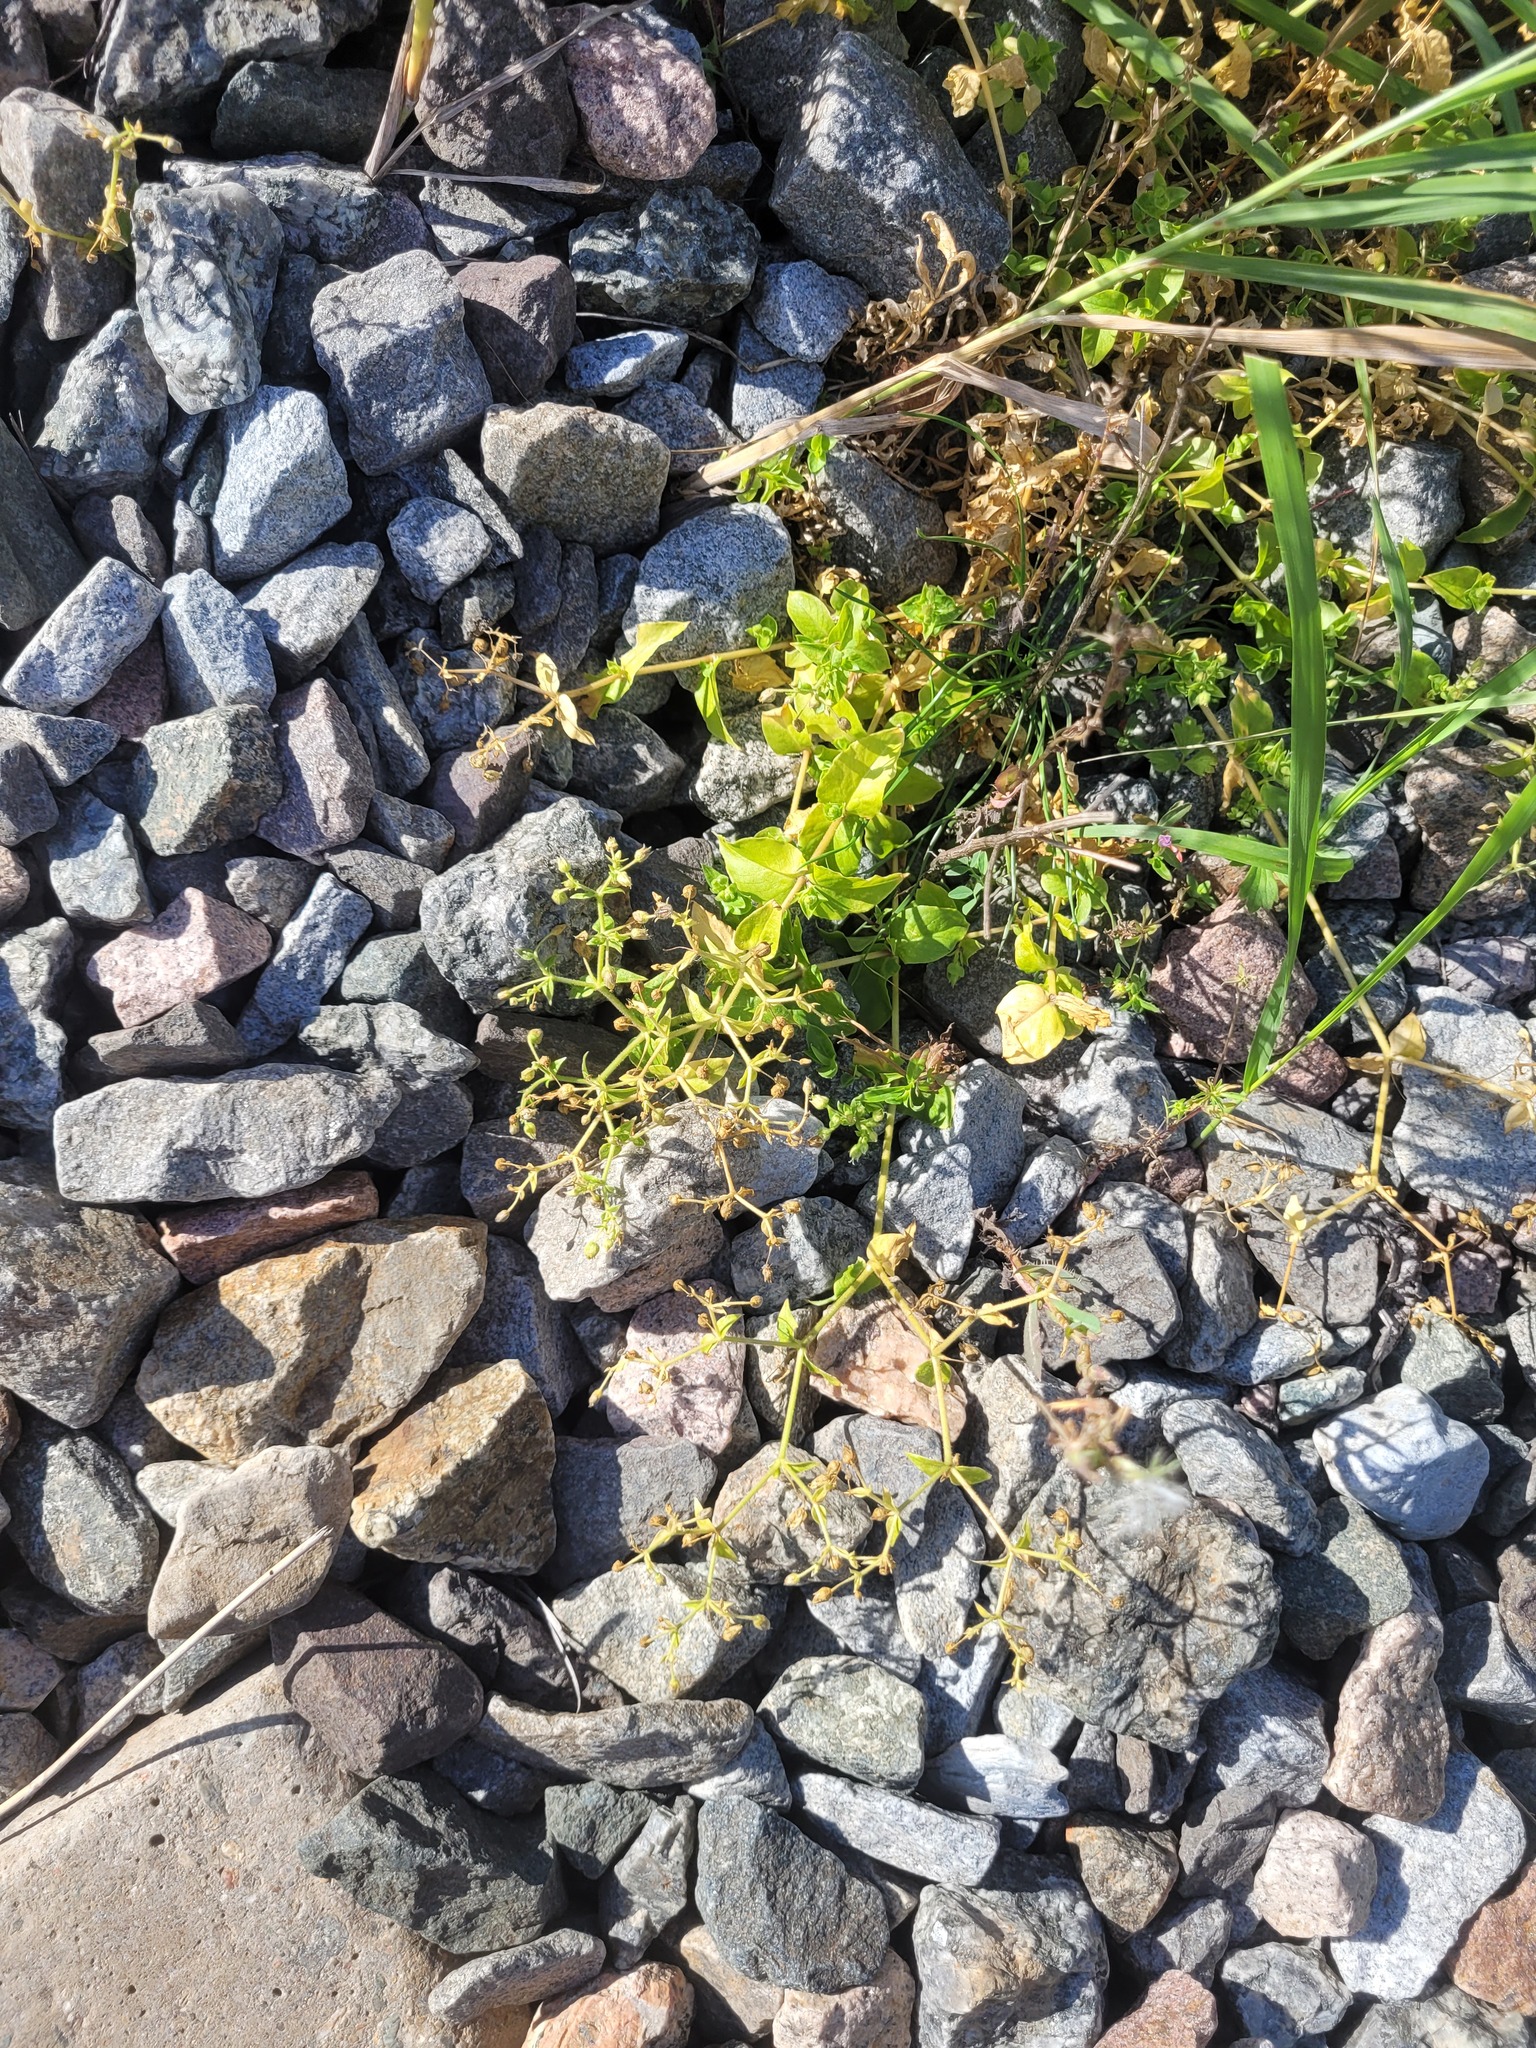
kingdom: Plantae
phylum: Tracheophyta
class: Magnoliopsida
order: Caryophyllales
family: Caryophyllaceae
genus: Stellaria
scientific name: Stellaria aquatica
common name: Water chickweed
